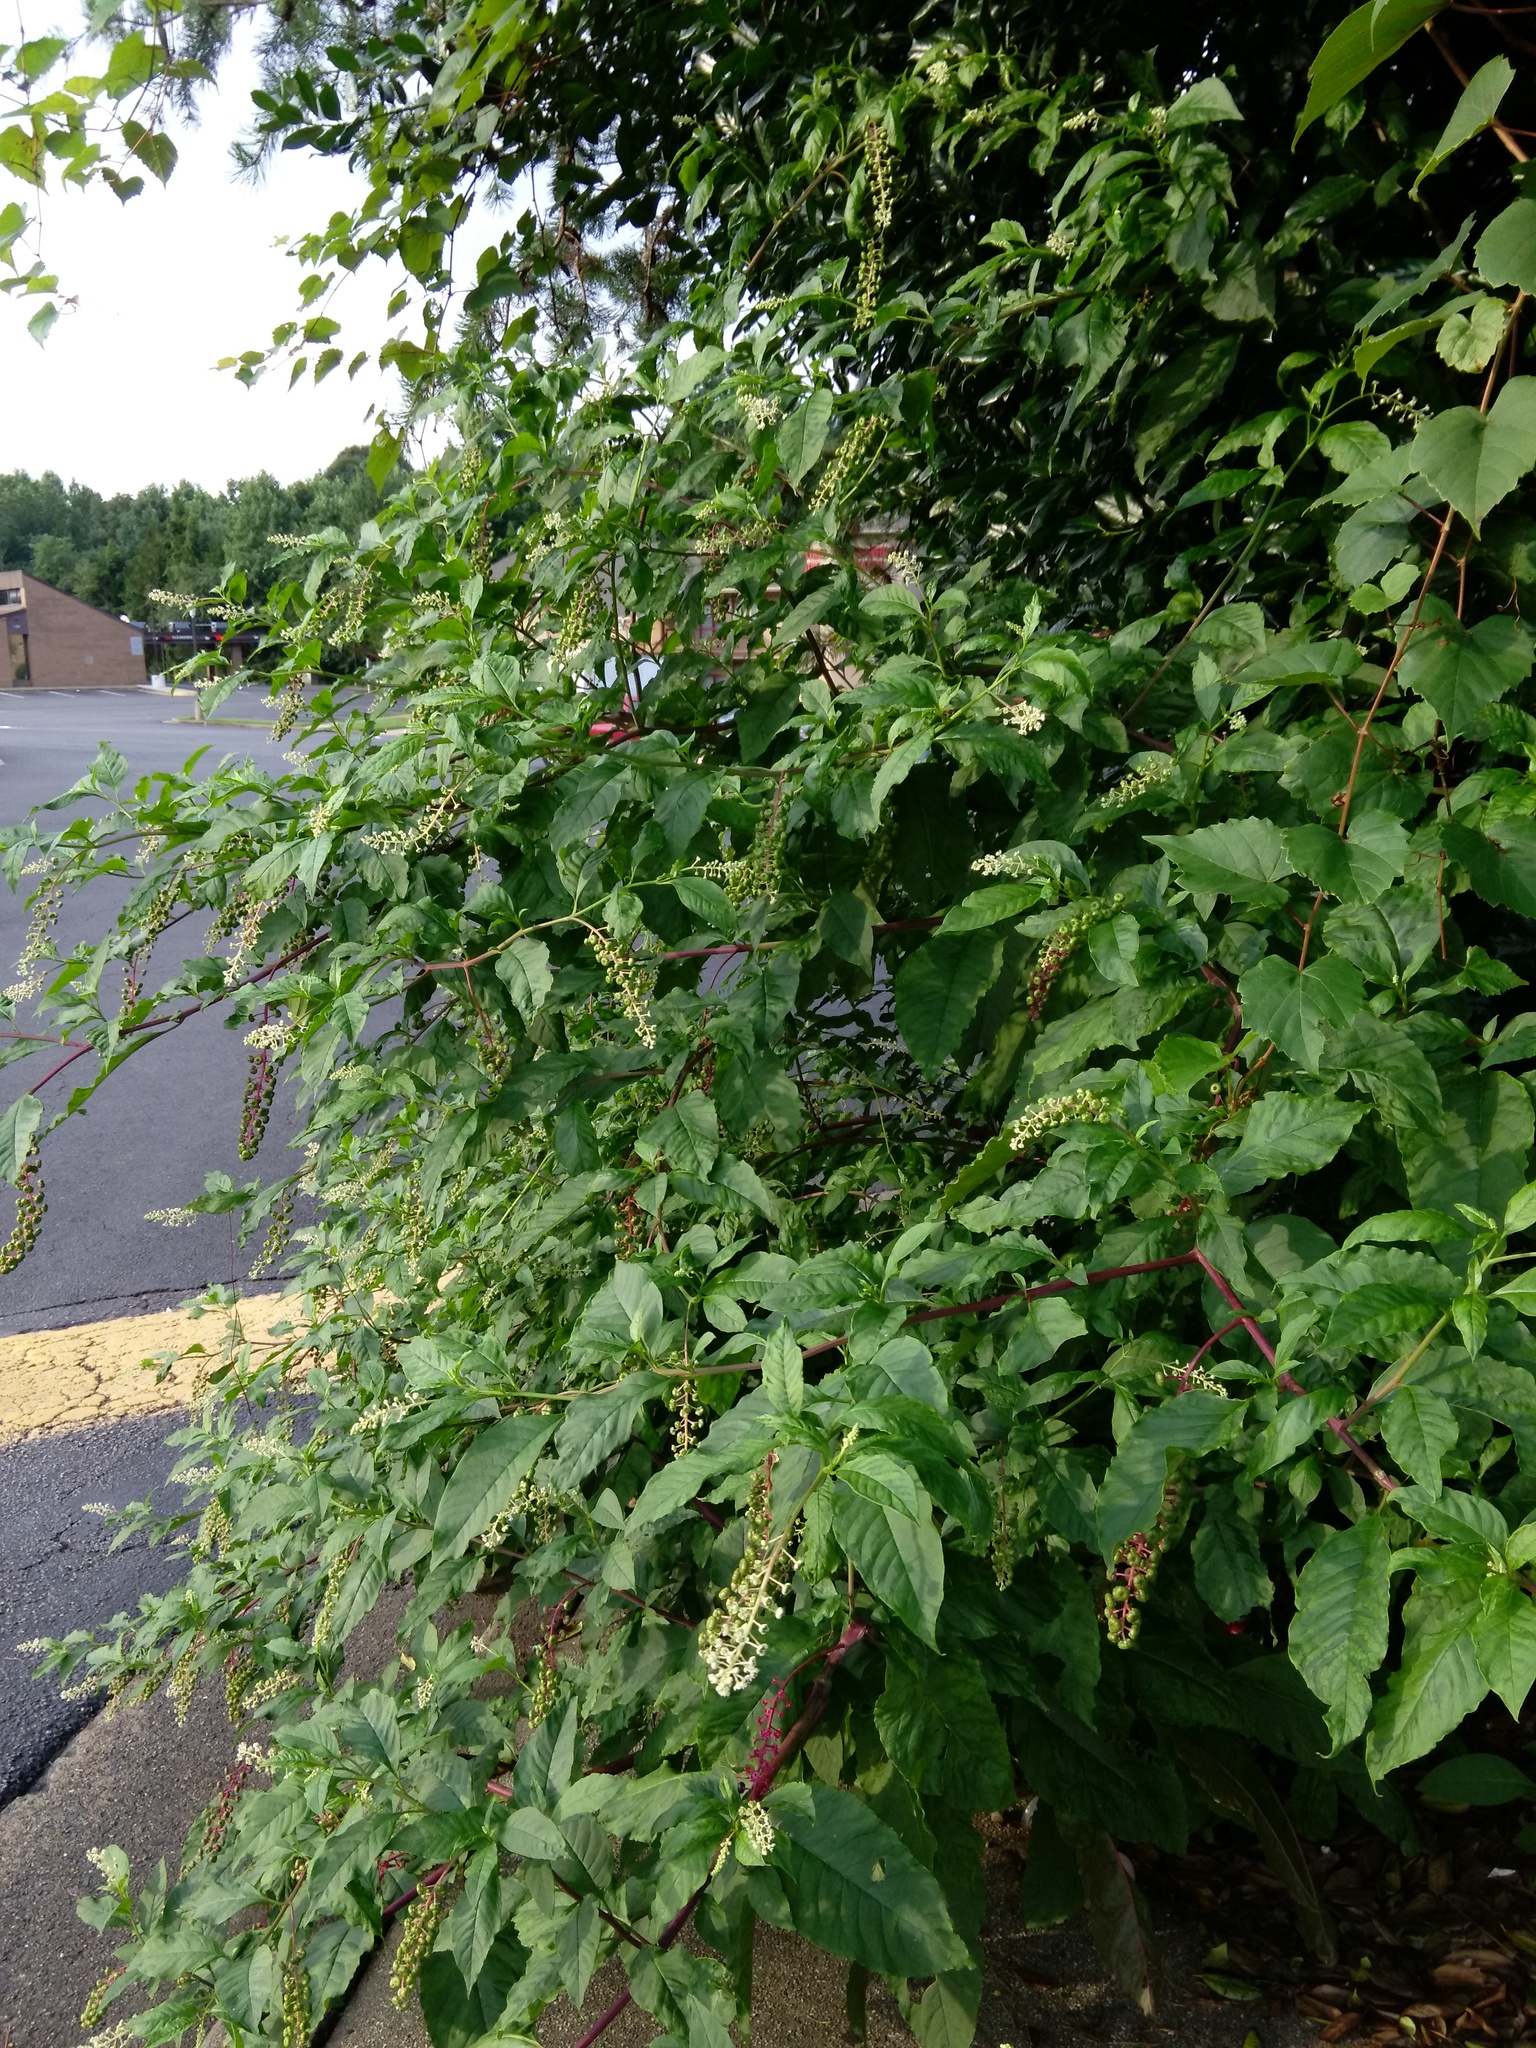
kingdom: Plantae
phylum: Tracheophyta
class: Magnoliopsida
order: Caryophyllales
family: Phytolaccaceae
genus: Phytolacca
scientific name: Phytolacca americana
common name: American pokeweed
